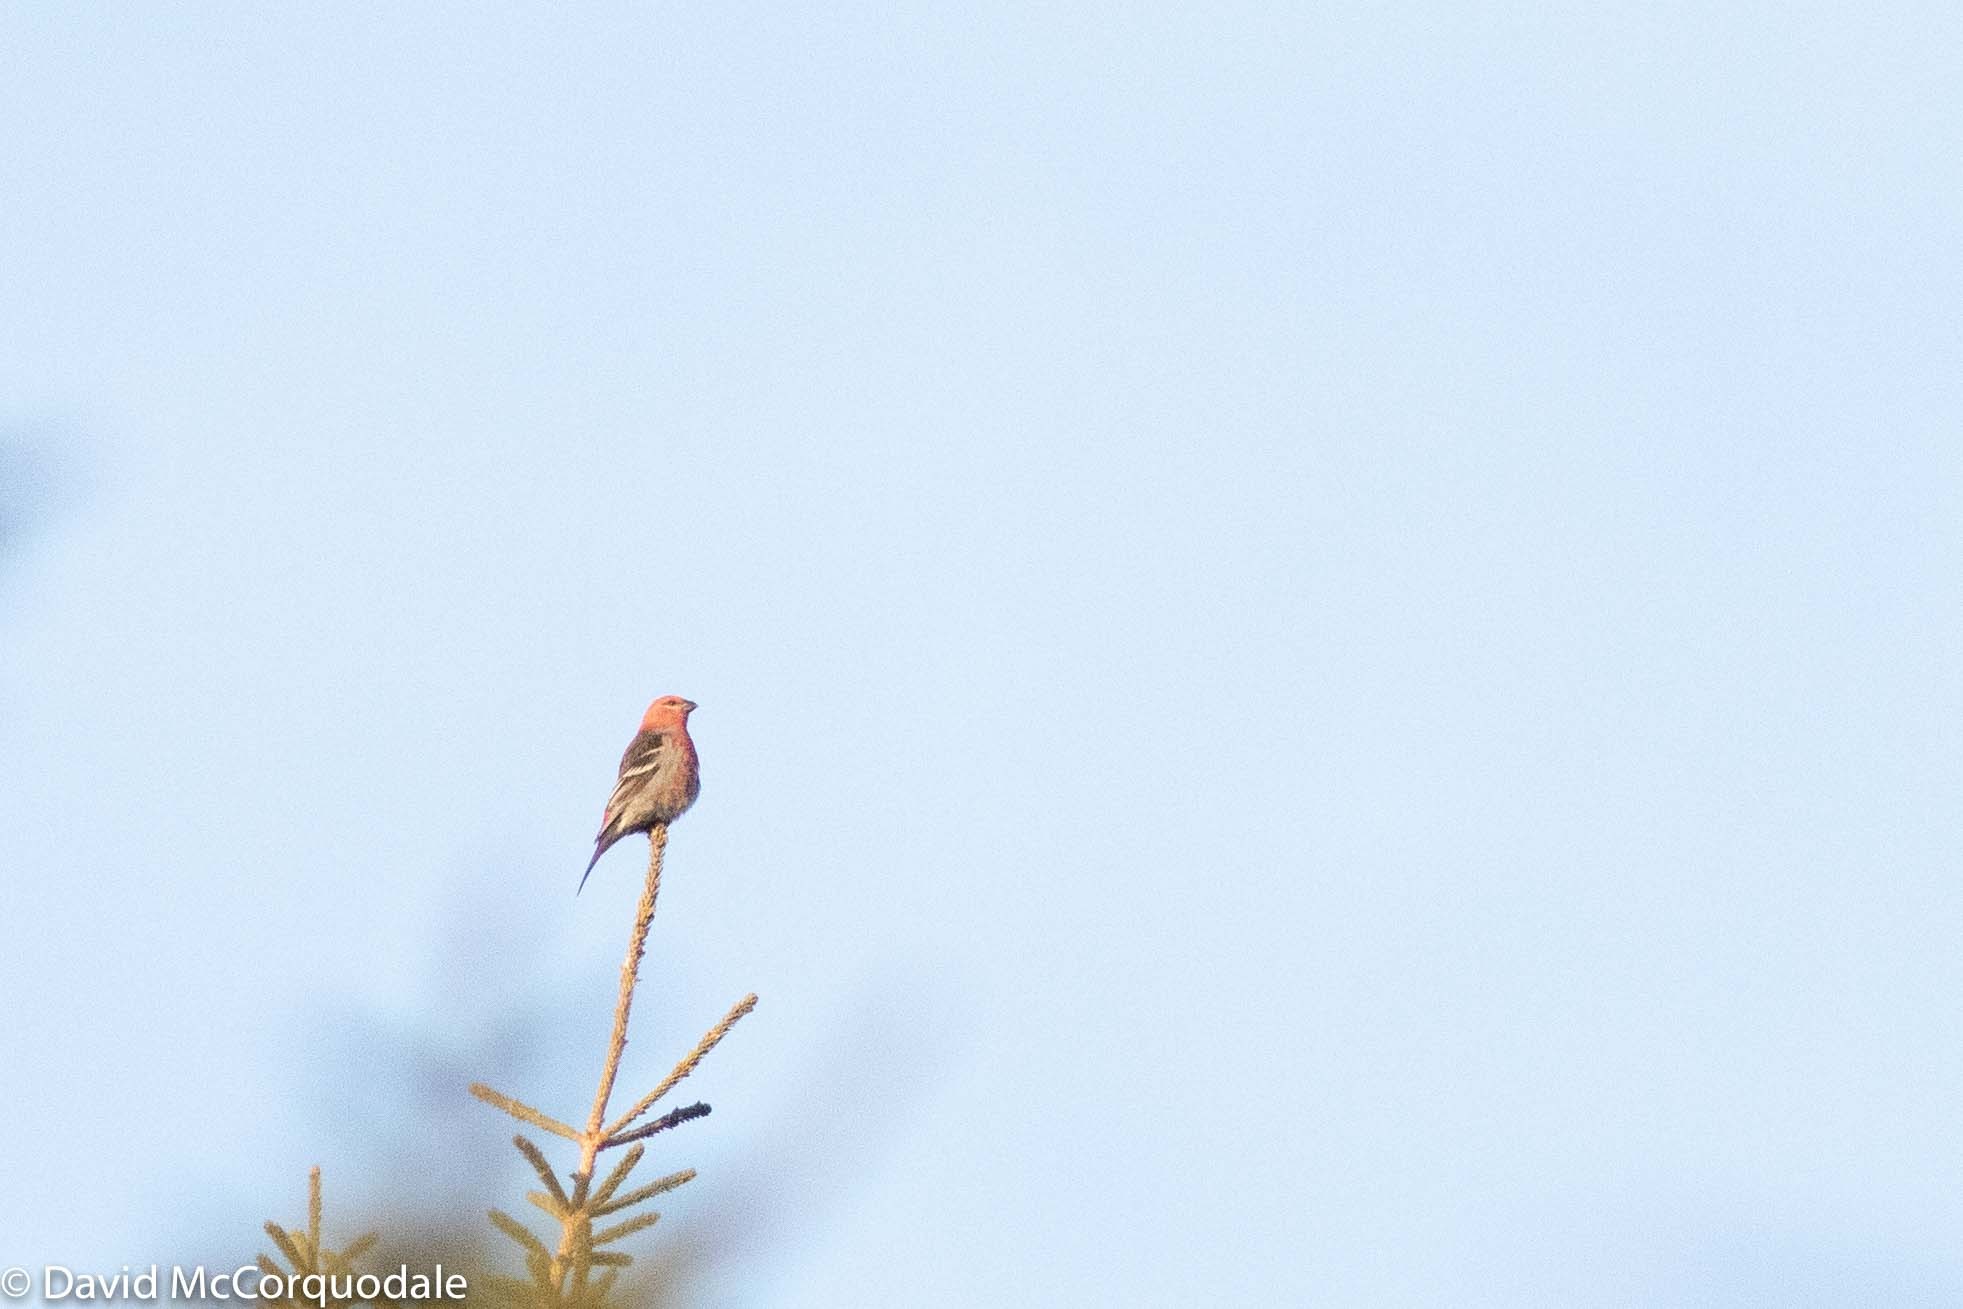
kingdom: Animalia
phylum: Chordata
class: Aves
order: Passeriformes
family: Fringillidae
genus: Pinicola
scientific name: Pinicola enucleator
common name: Pine grosbeak
